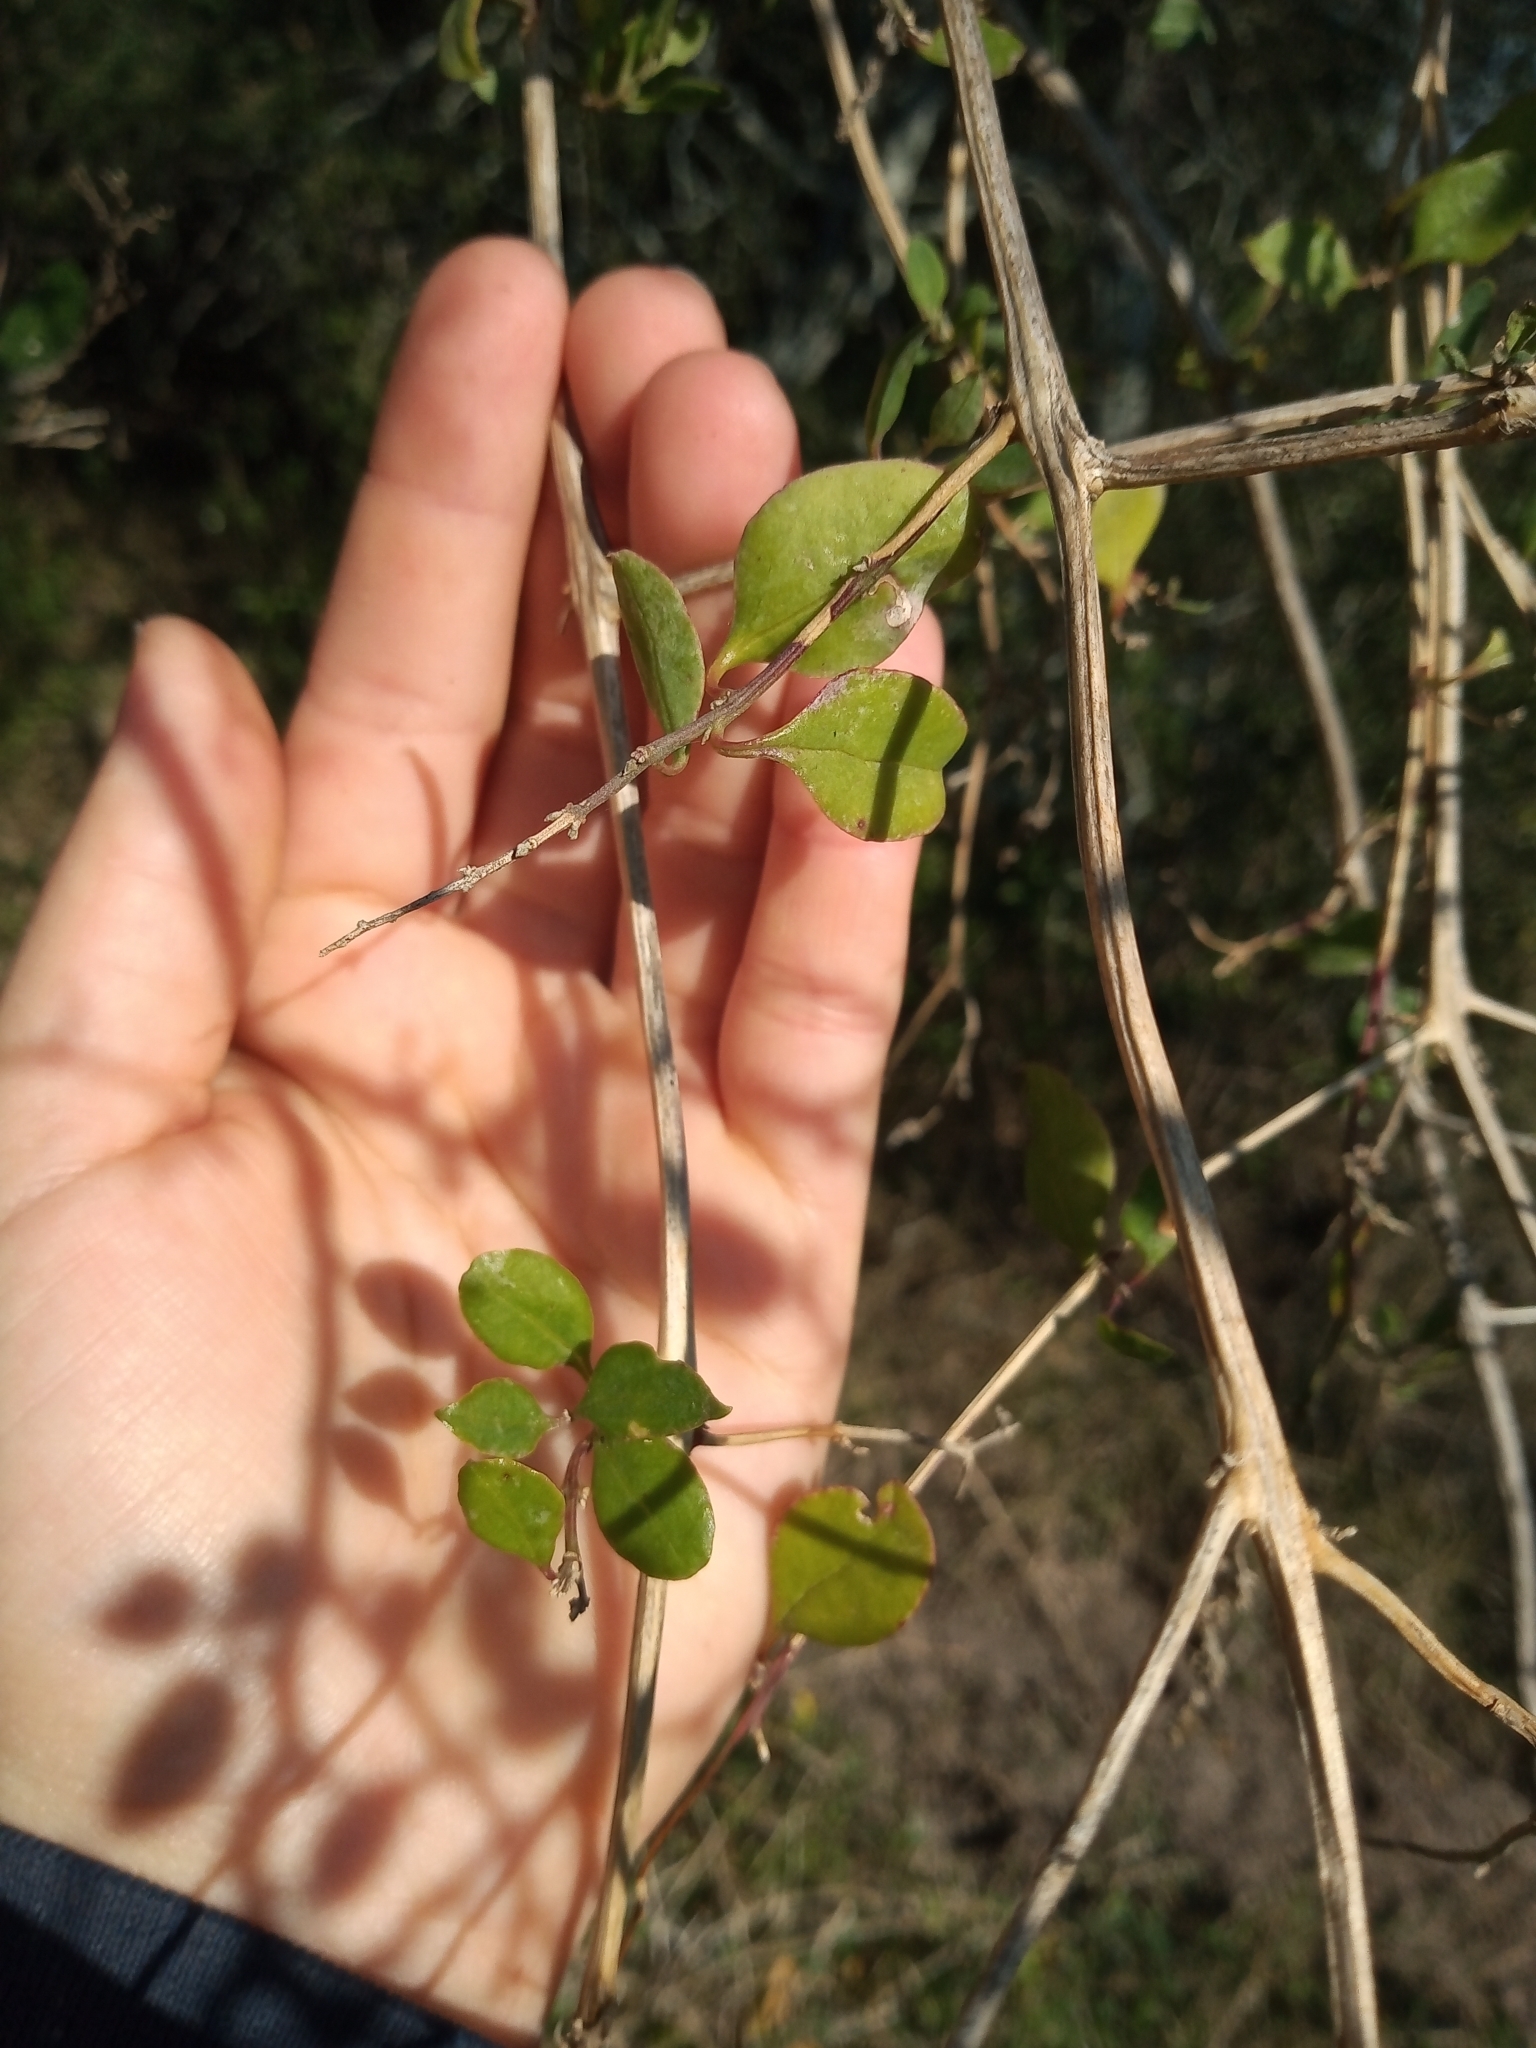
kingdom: Plantae
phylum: Tracheophyta
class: Magnoliopsida
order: Caryophyllales
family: Amaranthaceae
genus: Holmbergia
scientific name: Holmbergia tweedii
